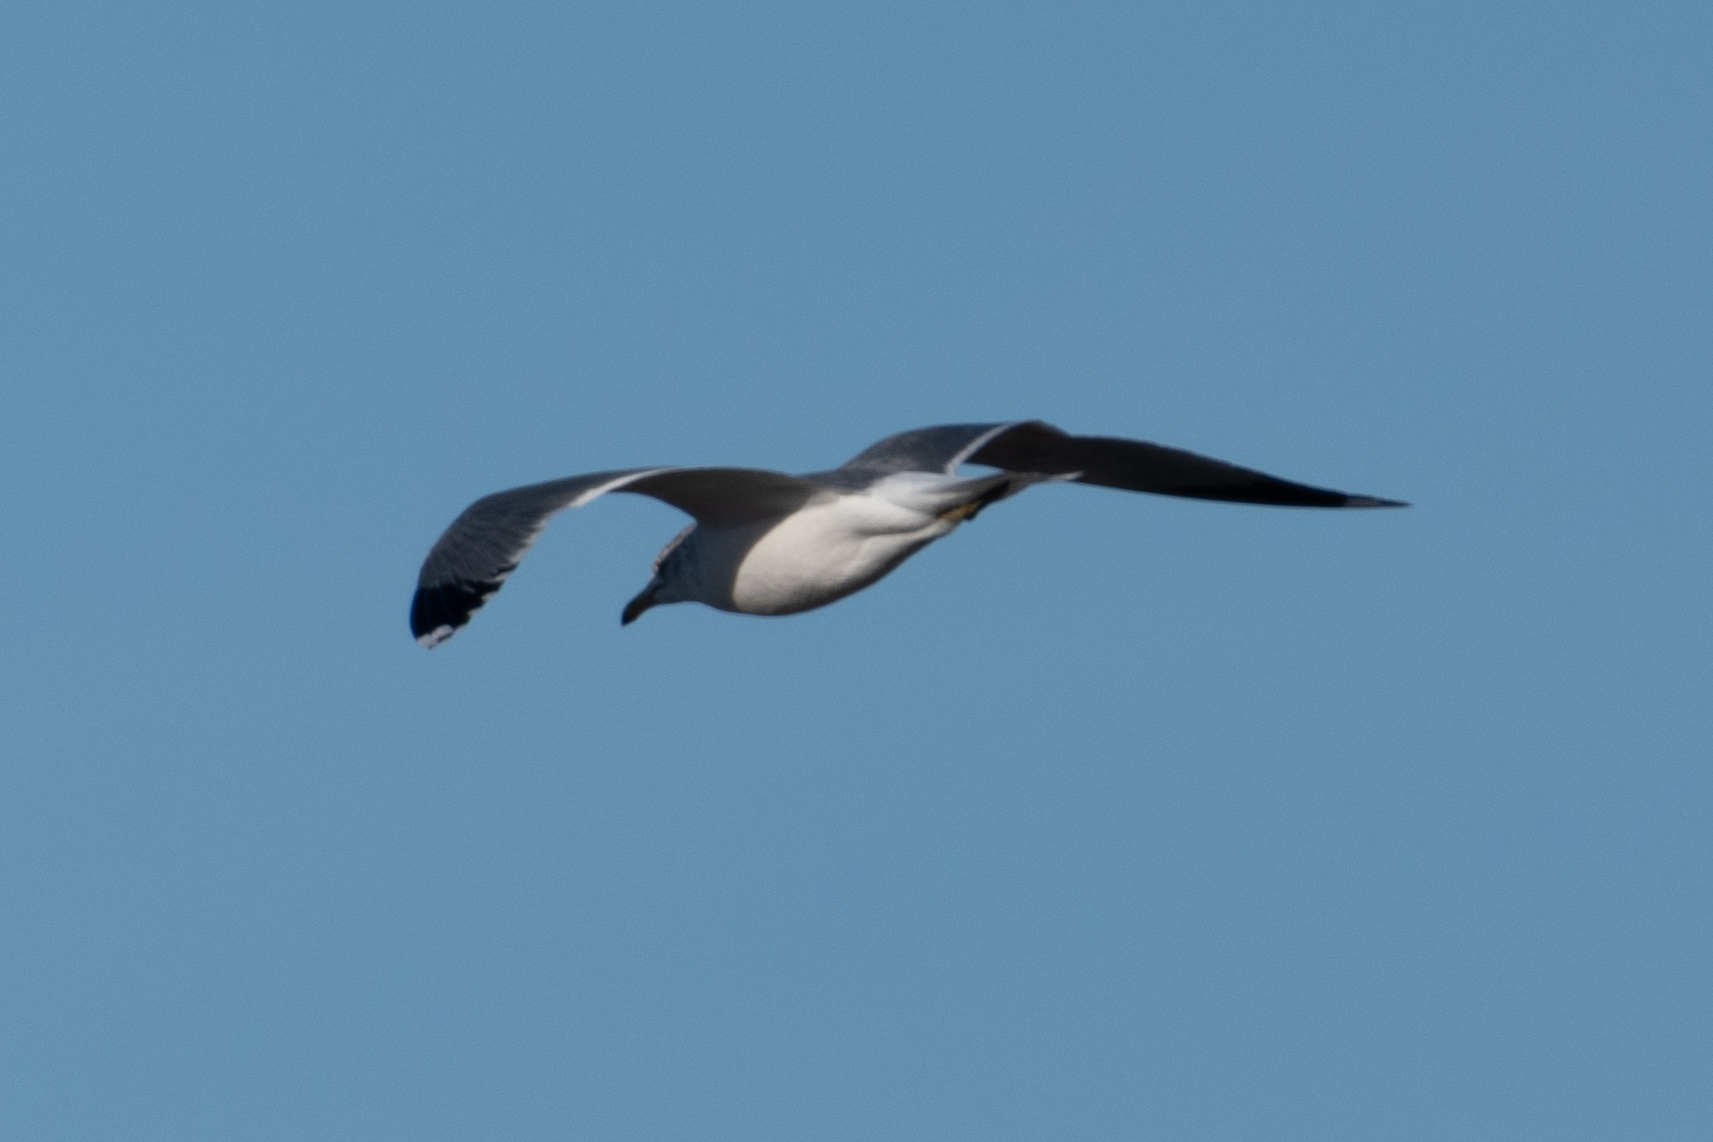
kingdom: Animalia
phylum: Chordata
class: Aves
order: Charadriiformes
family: Laridae
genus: Larus
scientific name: Larus californicus
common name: California gull
